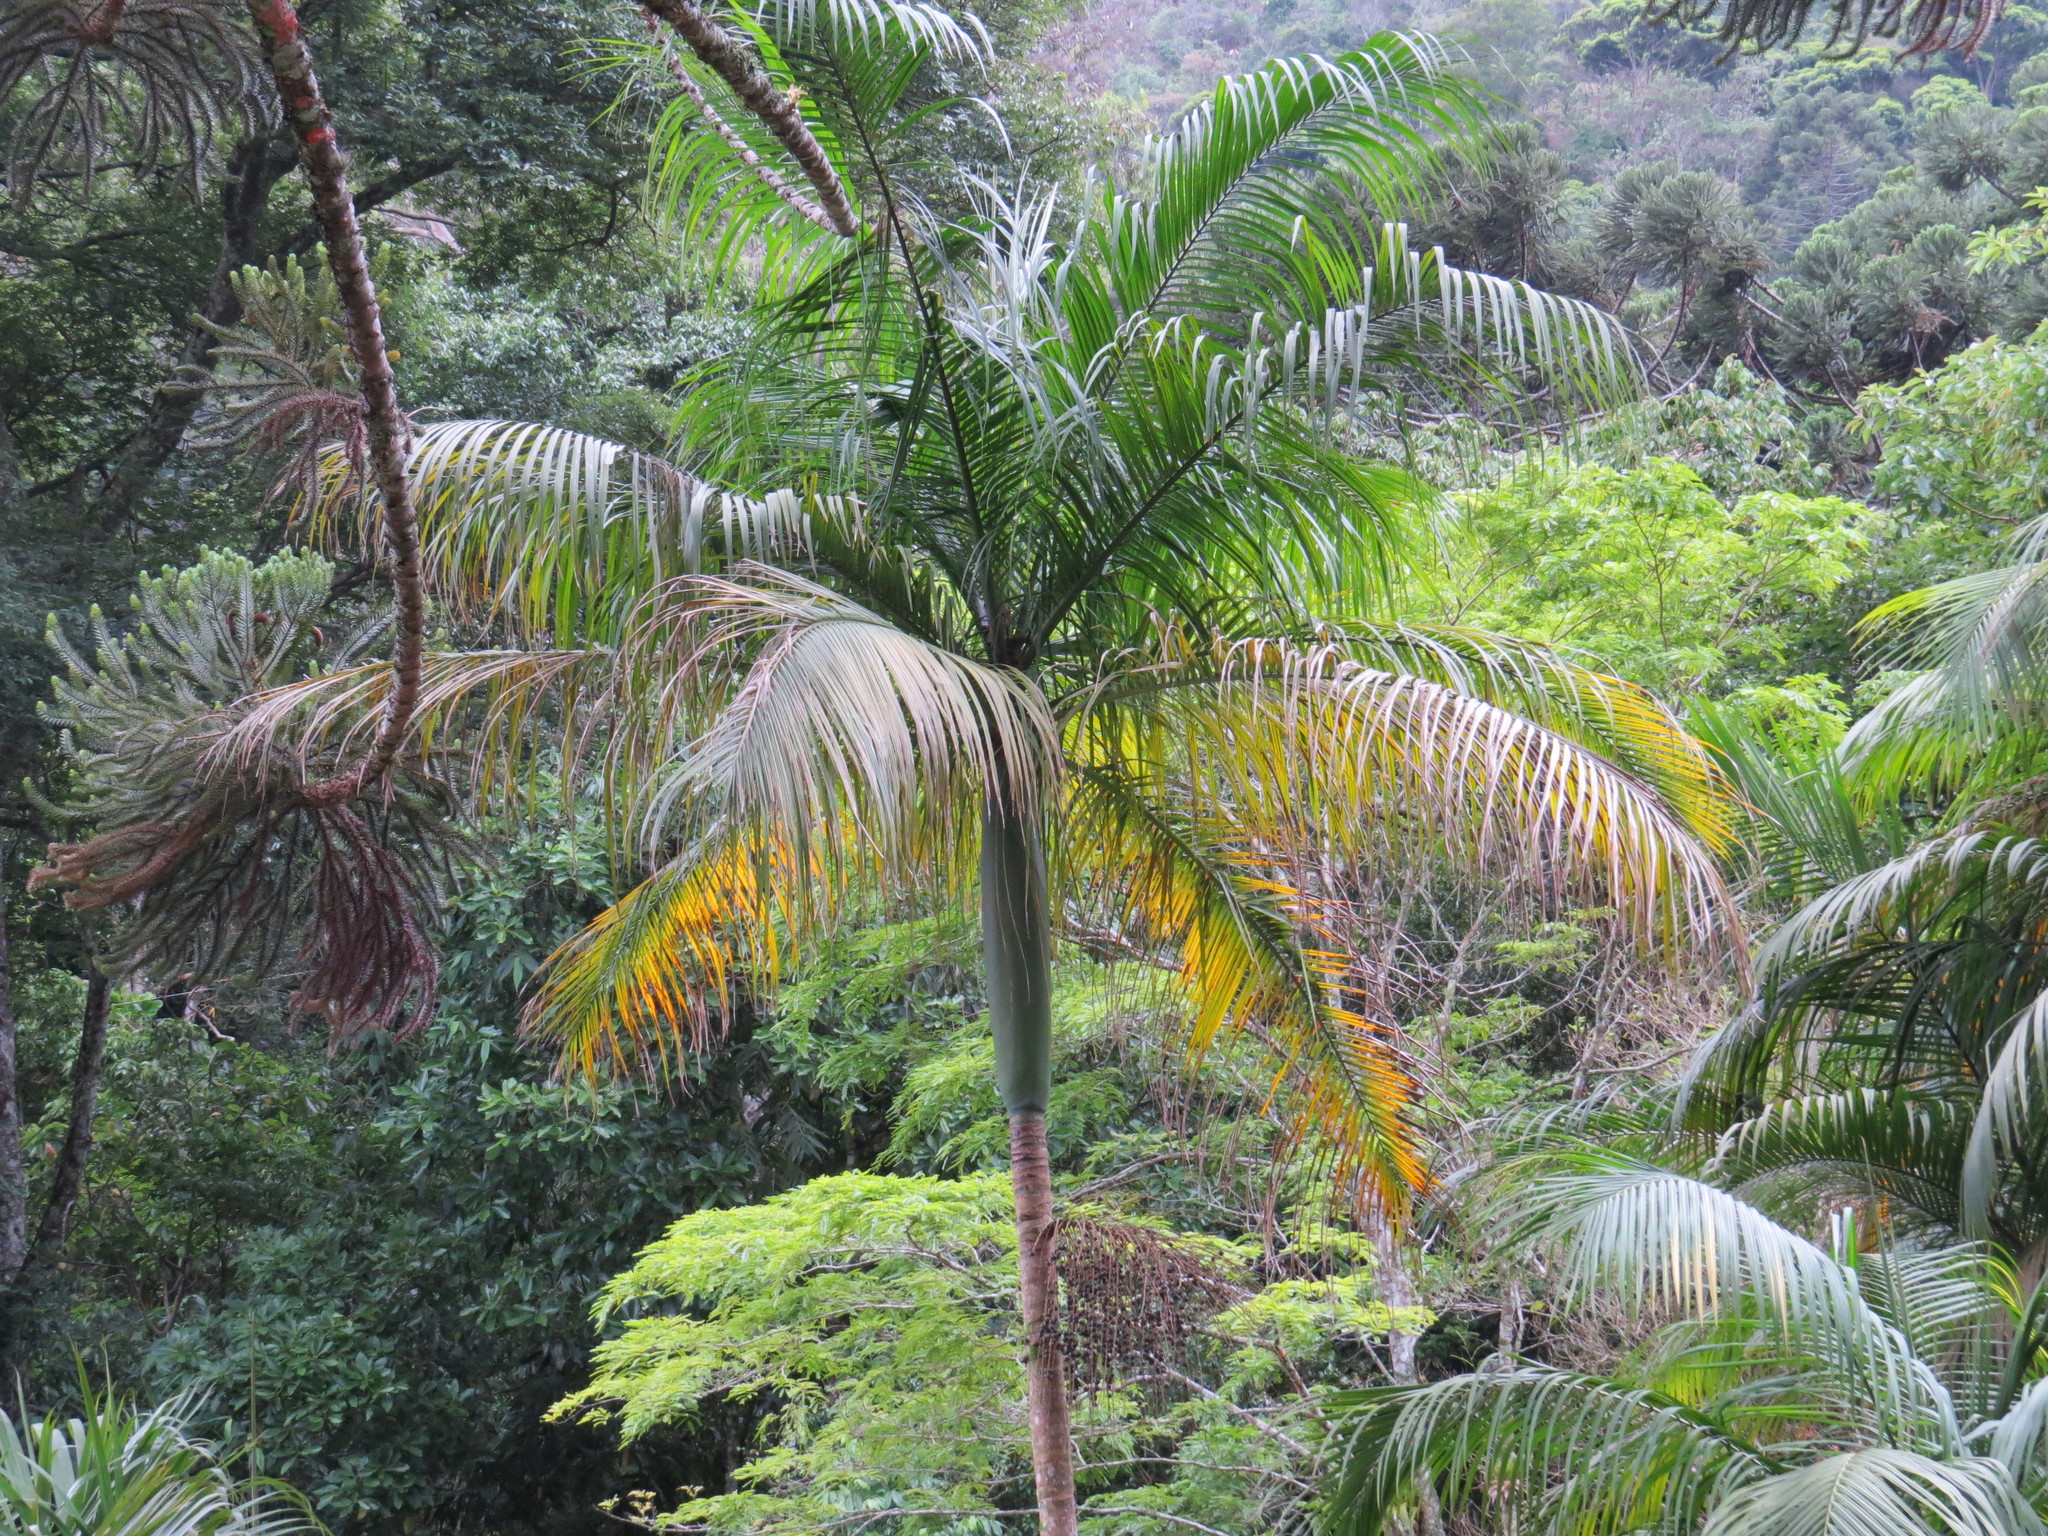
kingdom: Plantae
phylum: Tracheophyta
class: Liliopsida
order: Arecales
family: Arecaceae
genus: Euterpe
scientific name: Euterpe edulis
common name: Assai palm
